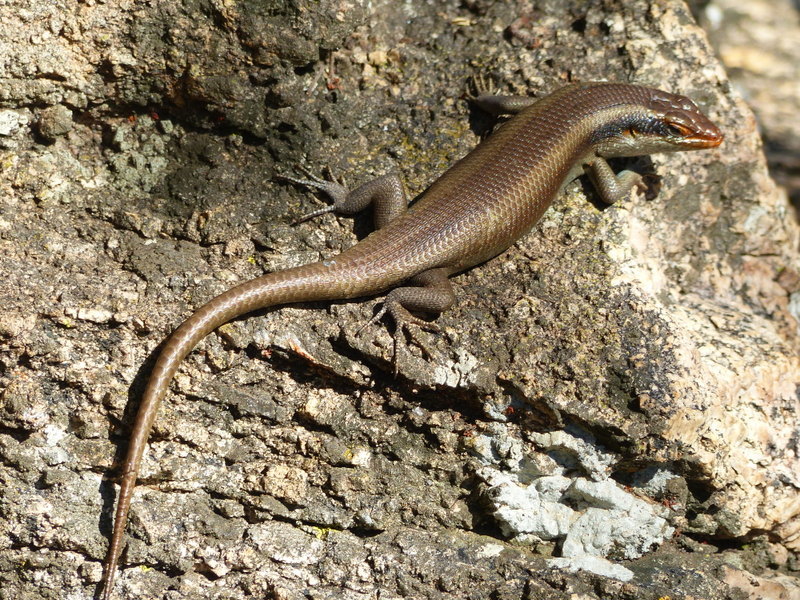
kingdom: Animalia
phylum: Chordata
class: Squamata
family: Scincidae
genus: Trachylepis
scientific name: Trachylepis wahlbergii
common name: Wahlberg’s striped skink
